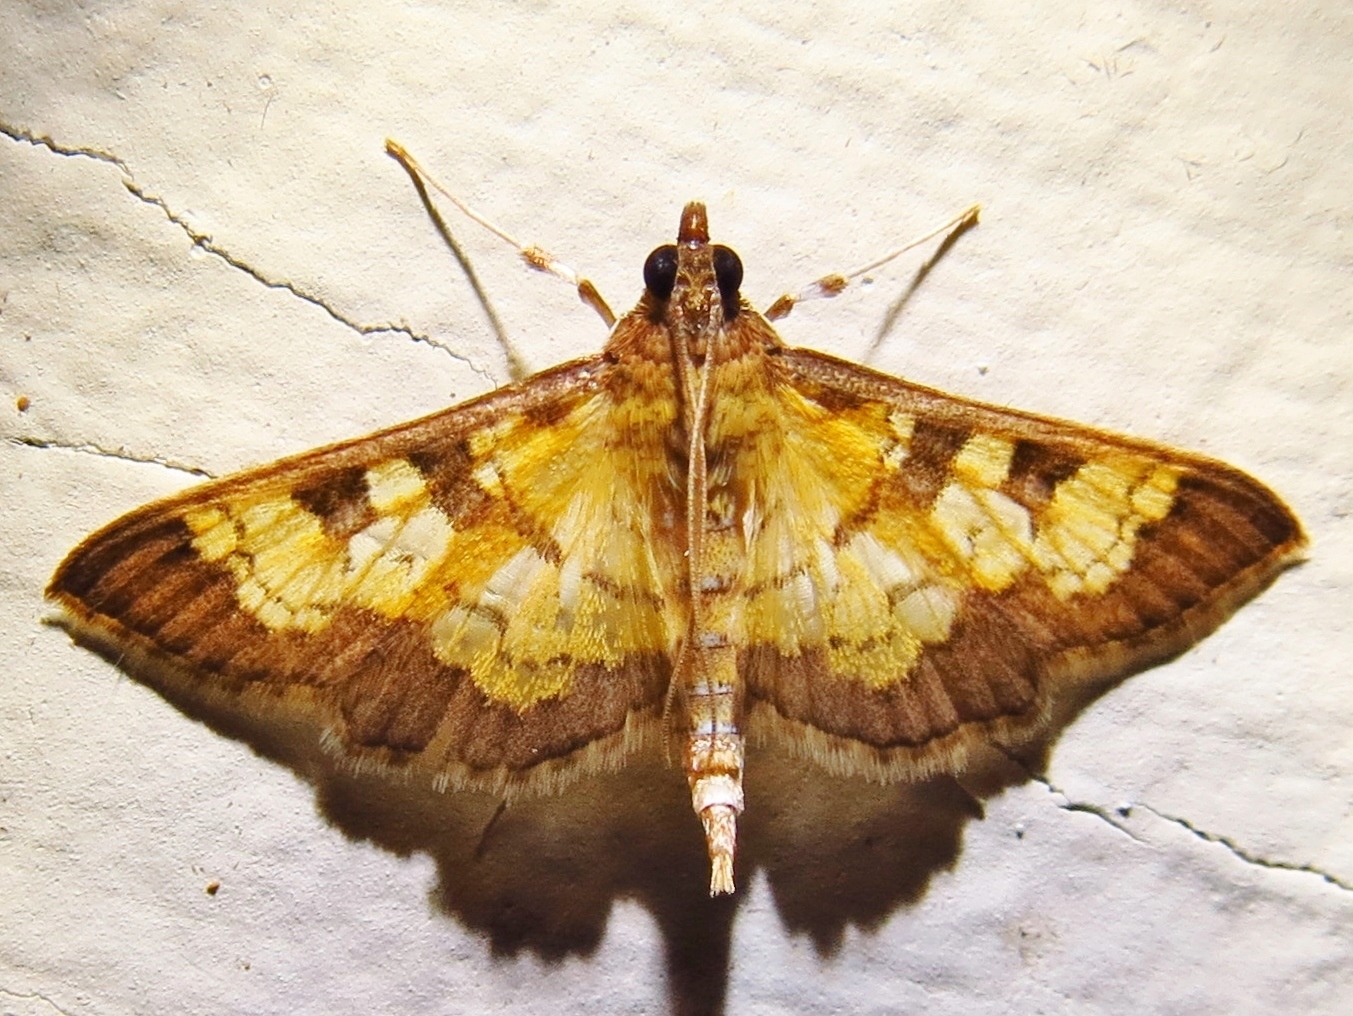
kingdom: Animalia
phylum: Arthropoda
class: Insecta
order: Lepidoptera
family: Crambidae
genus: Epipagis
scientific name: Epipagis adipaloides
